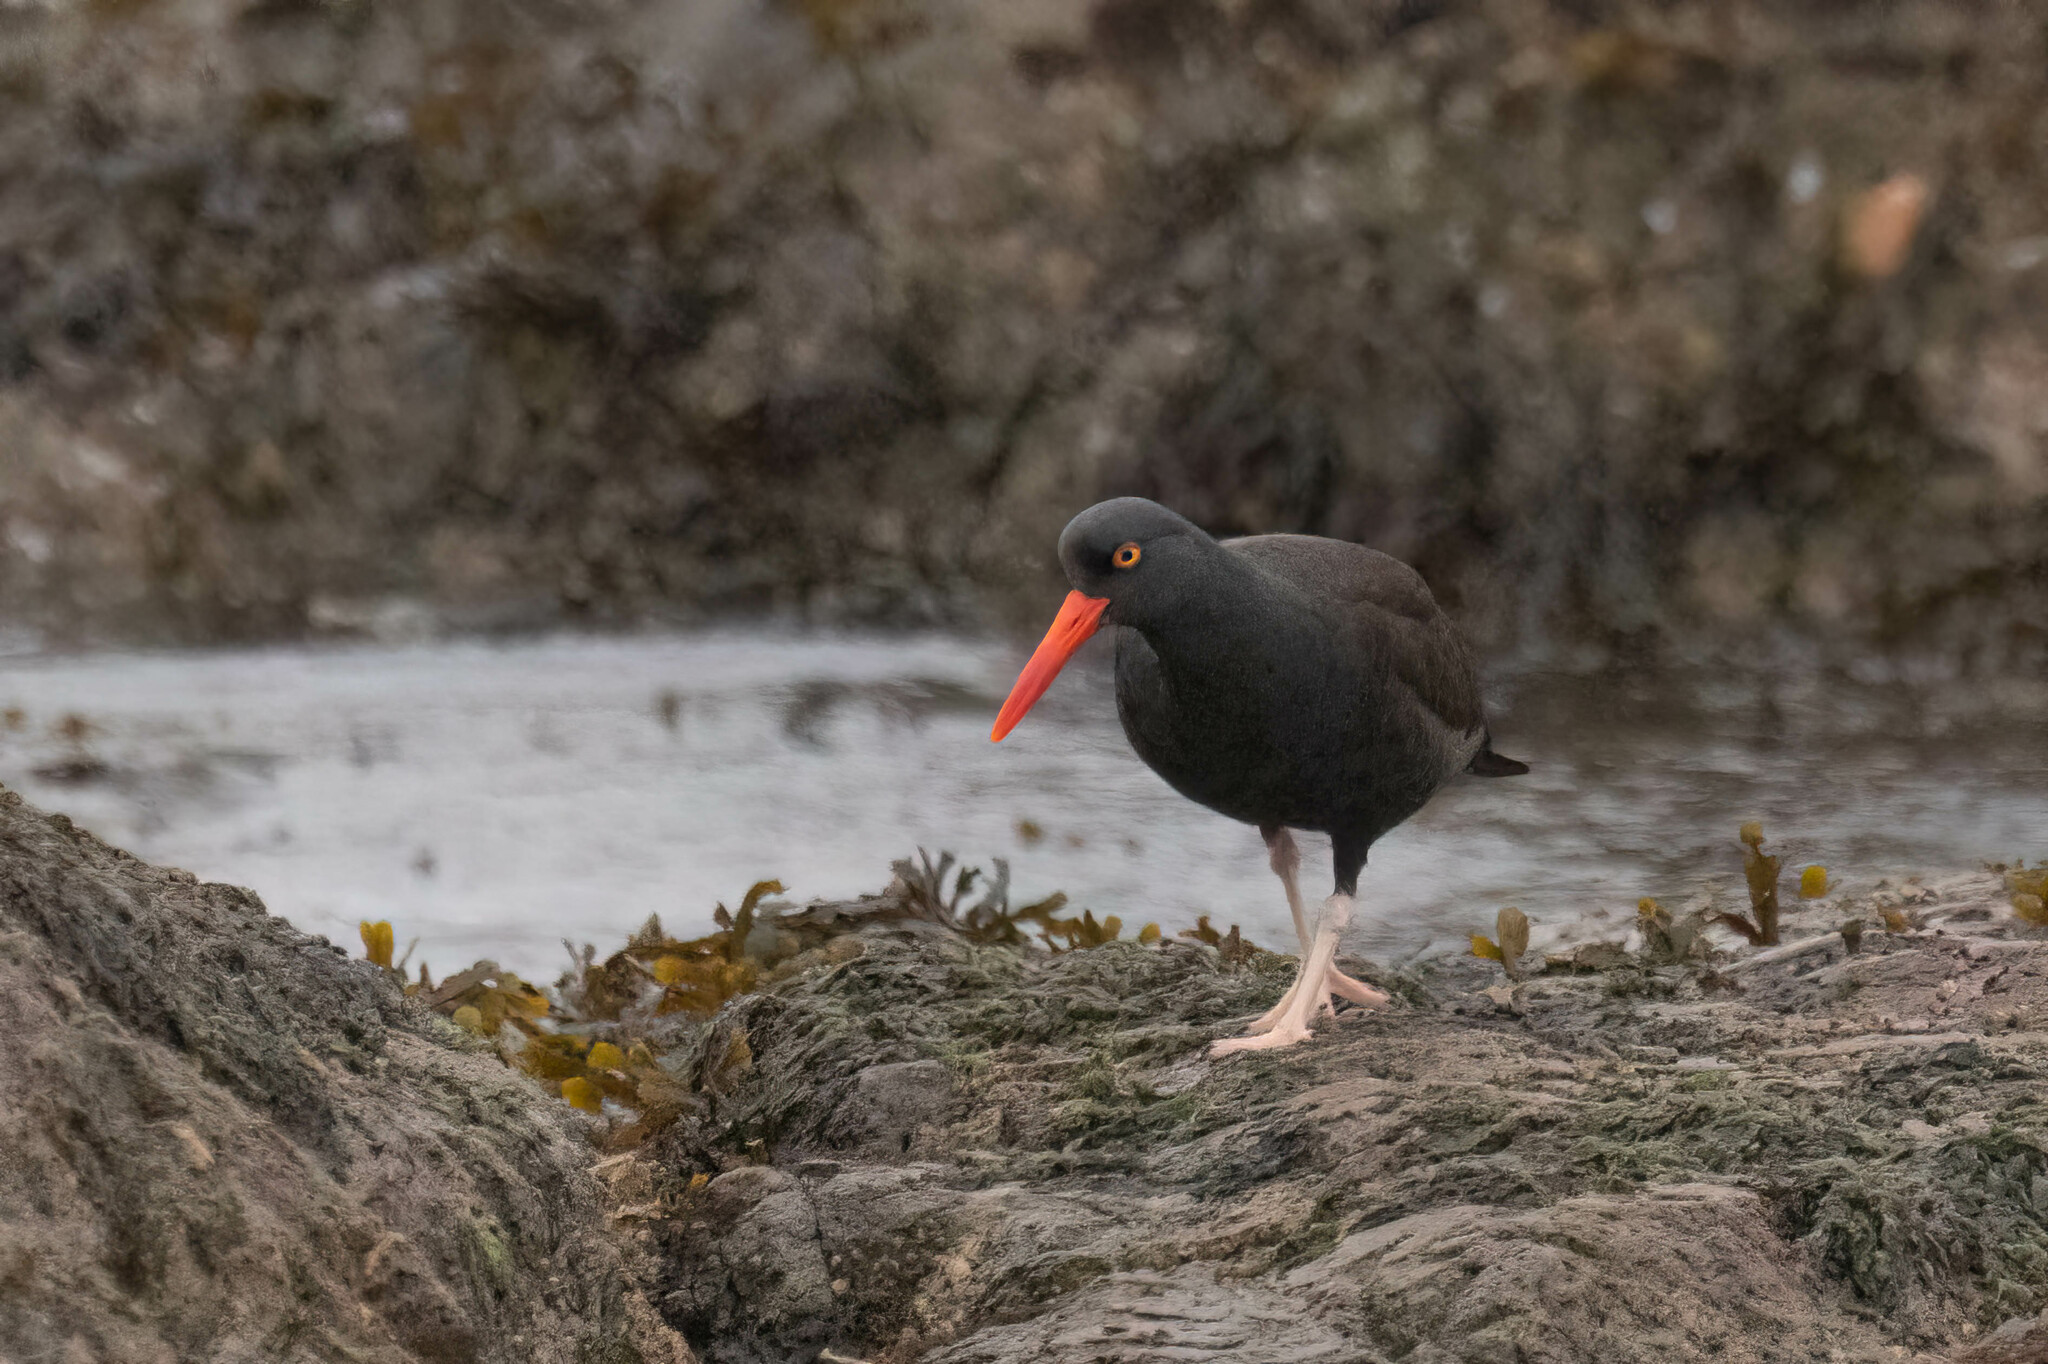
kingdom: Animalia
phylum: Chordata
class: Aves
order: Charadriiformes
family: Haematopodidae
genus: Haematopus
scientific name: Haematopus bachmani
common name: Black oystercatcher
